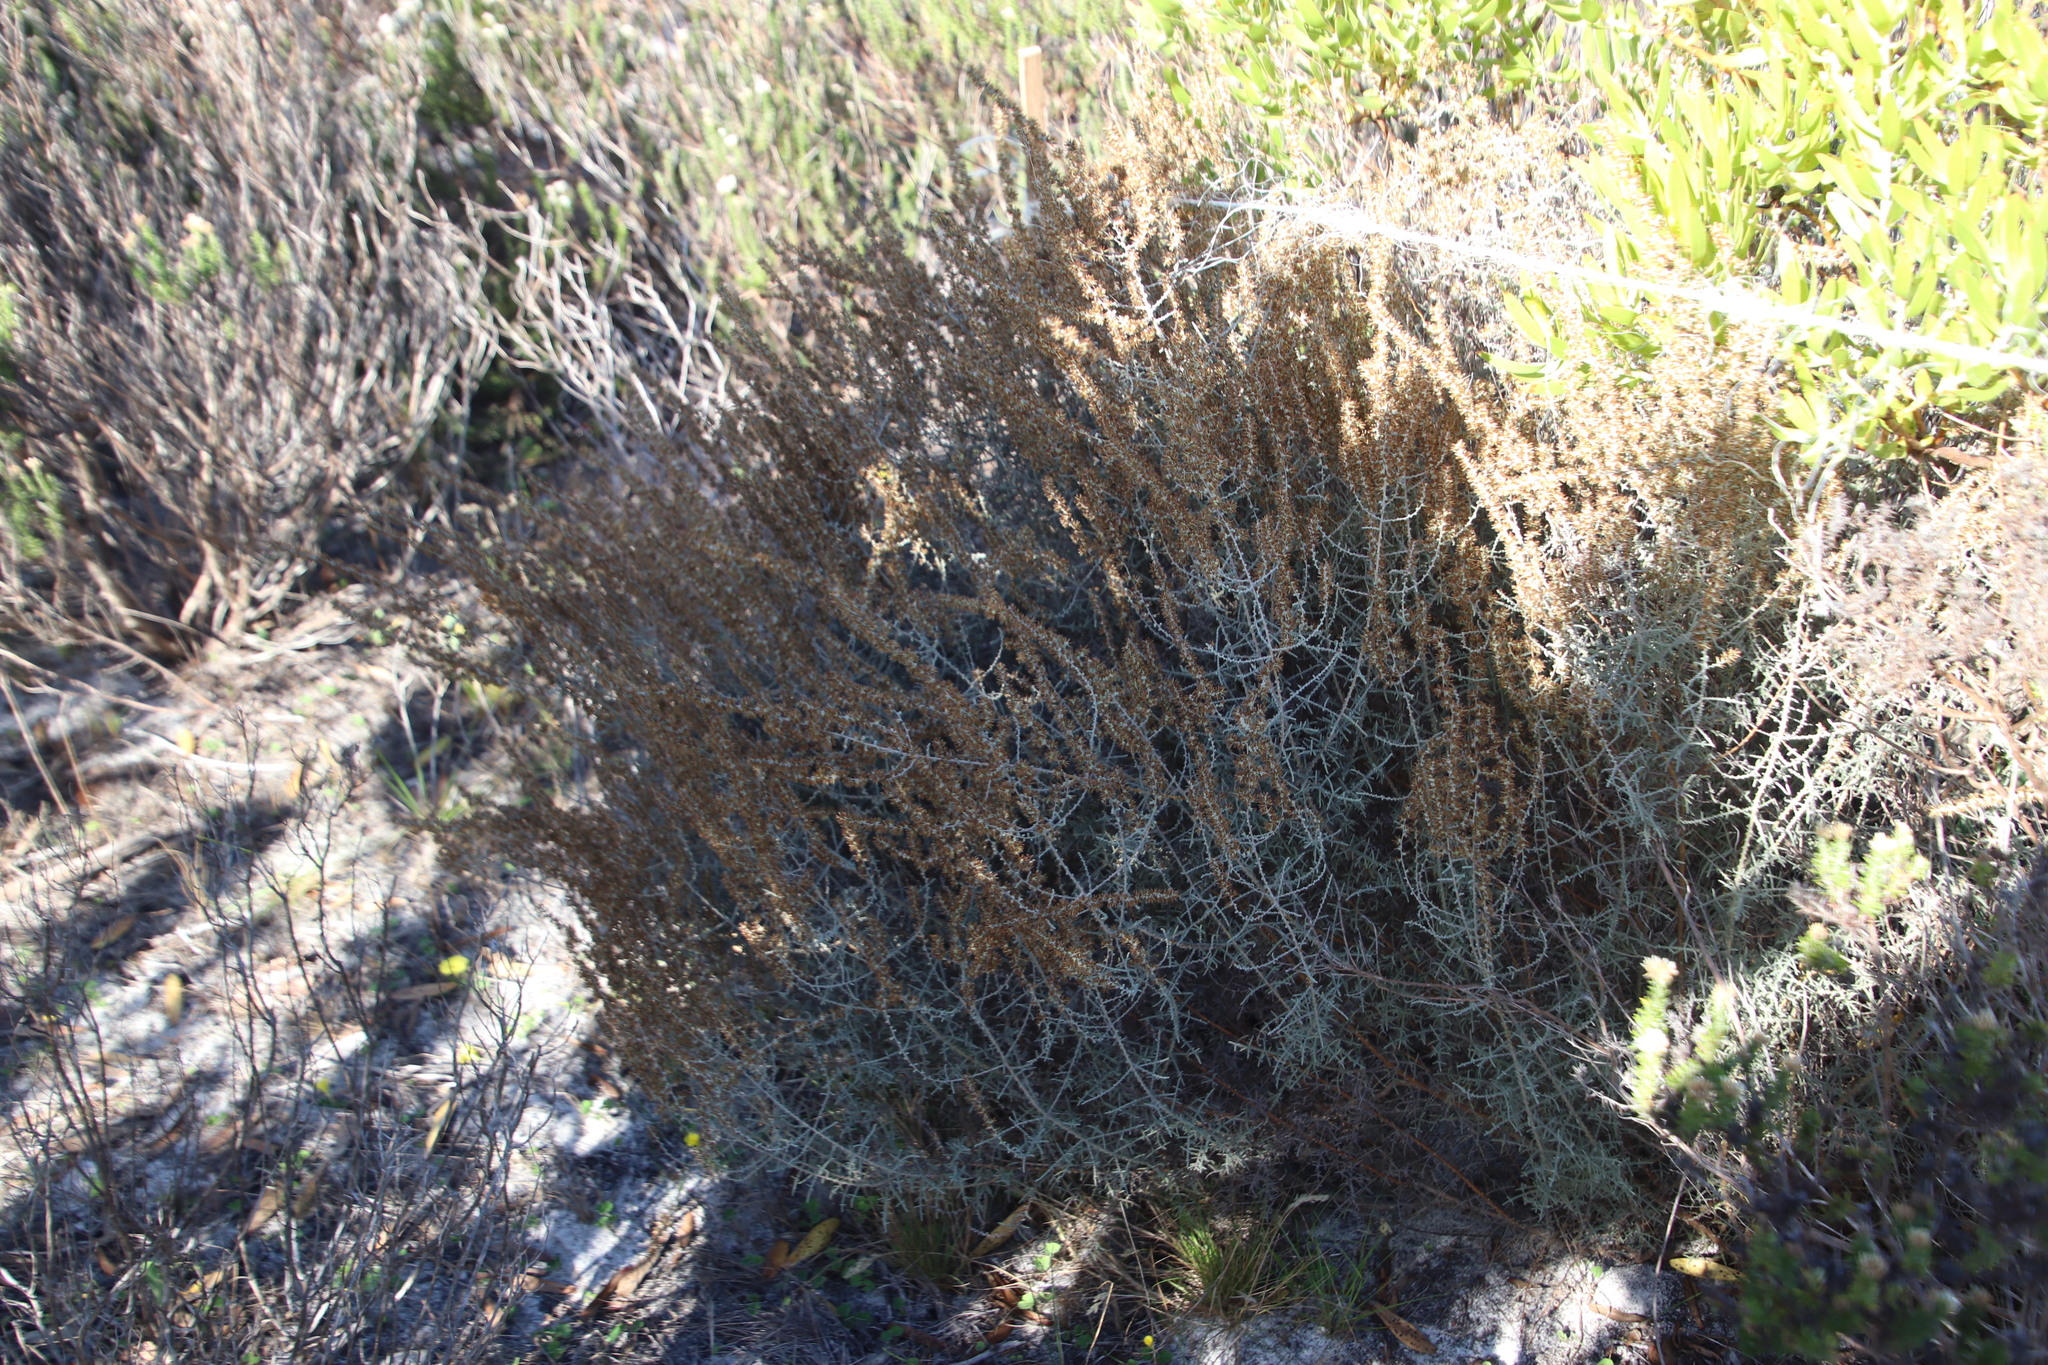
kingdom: Plantae
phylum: Tracheophyta
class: Magnoliopsida
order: Asterales
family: Asteraceae
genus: Seriphium
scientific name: Seriphium plumosum
